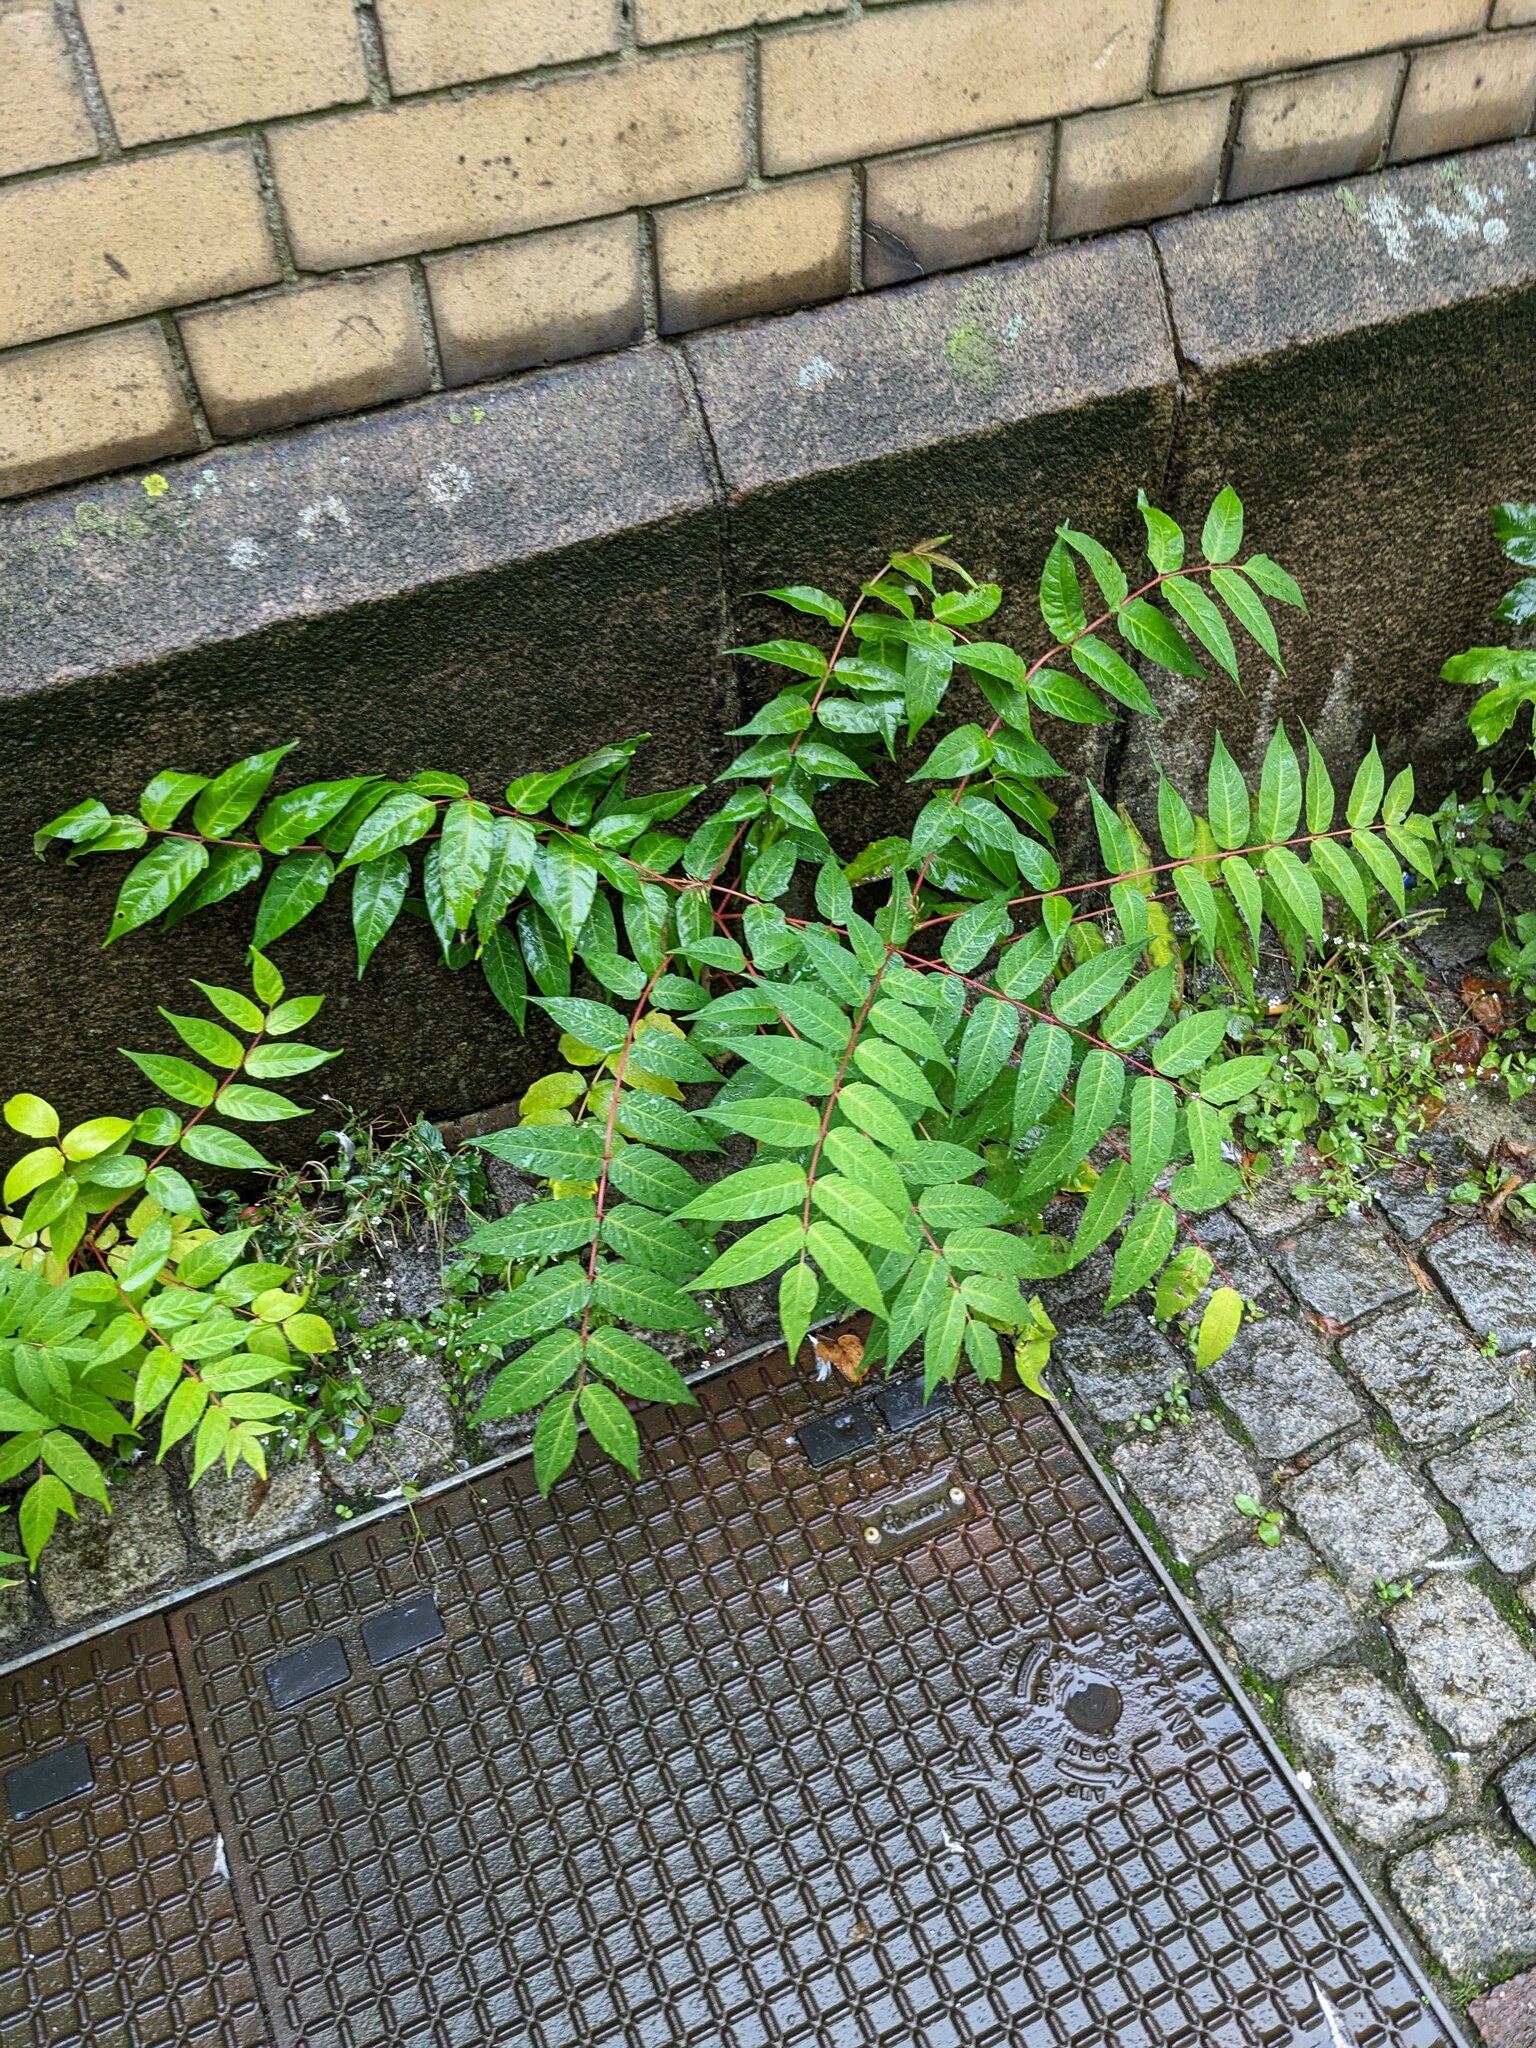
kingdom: Plantae
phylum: Tracheophyta
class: Magnoliopsida
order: Sapindales
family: Simaroubaceae
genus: Ailanthus
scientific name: Ailanthus altissima
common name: Tree-of-heaven
